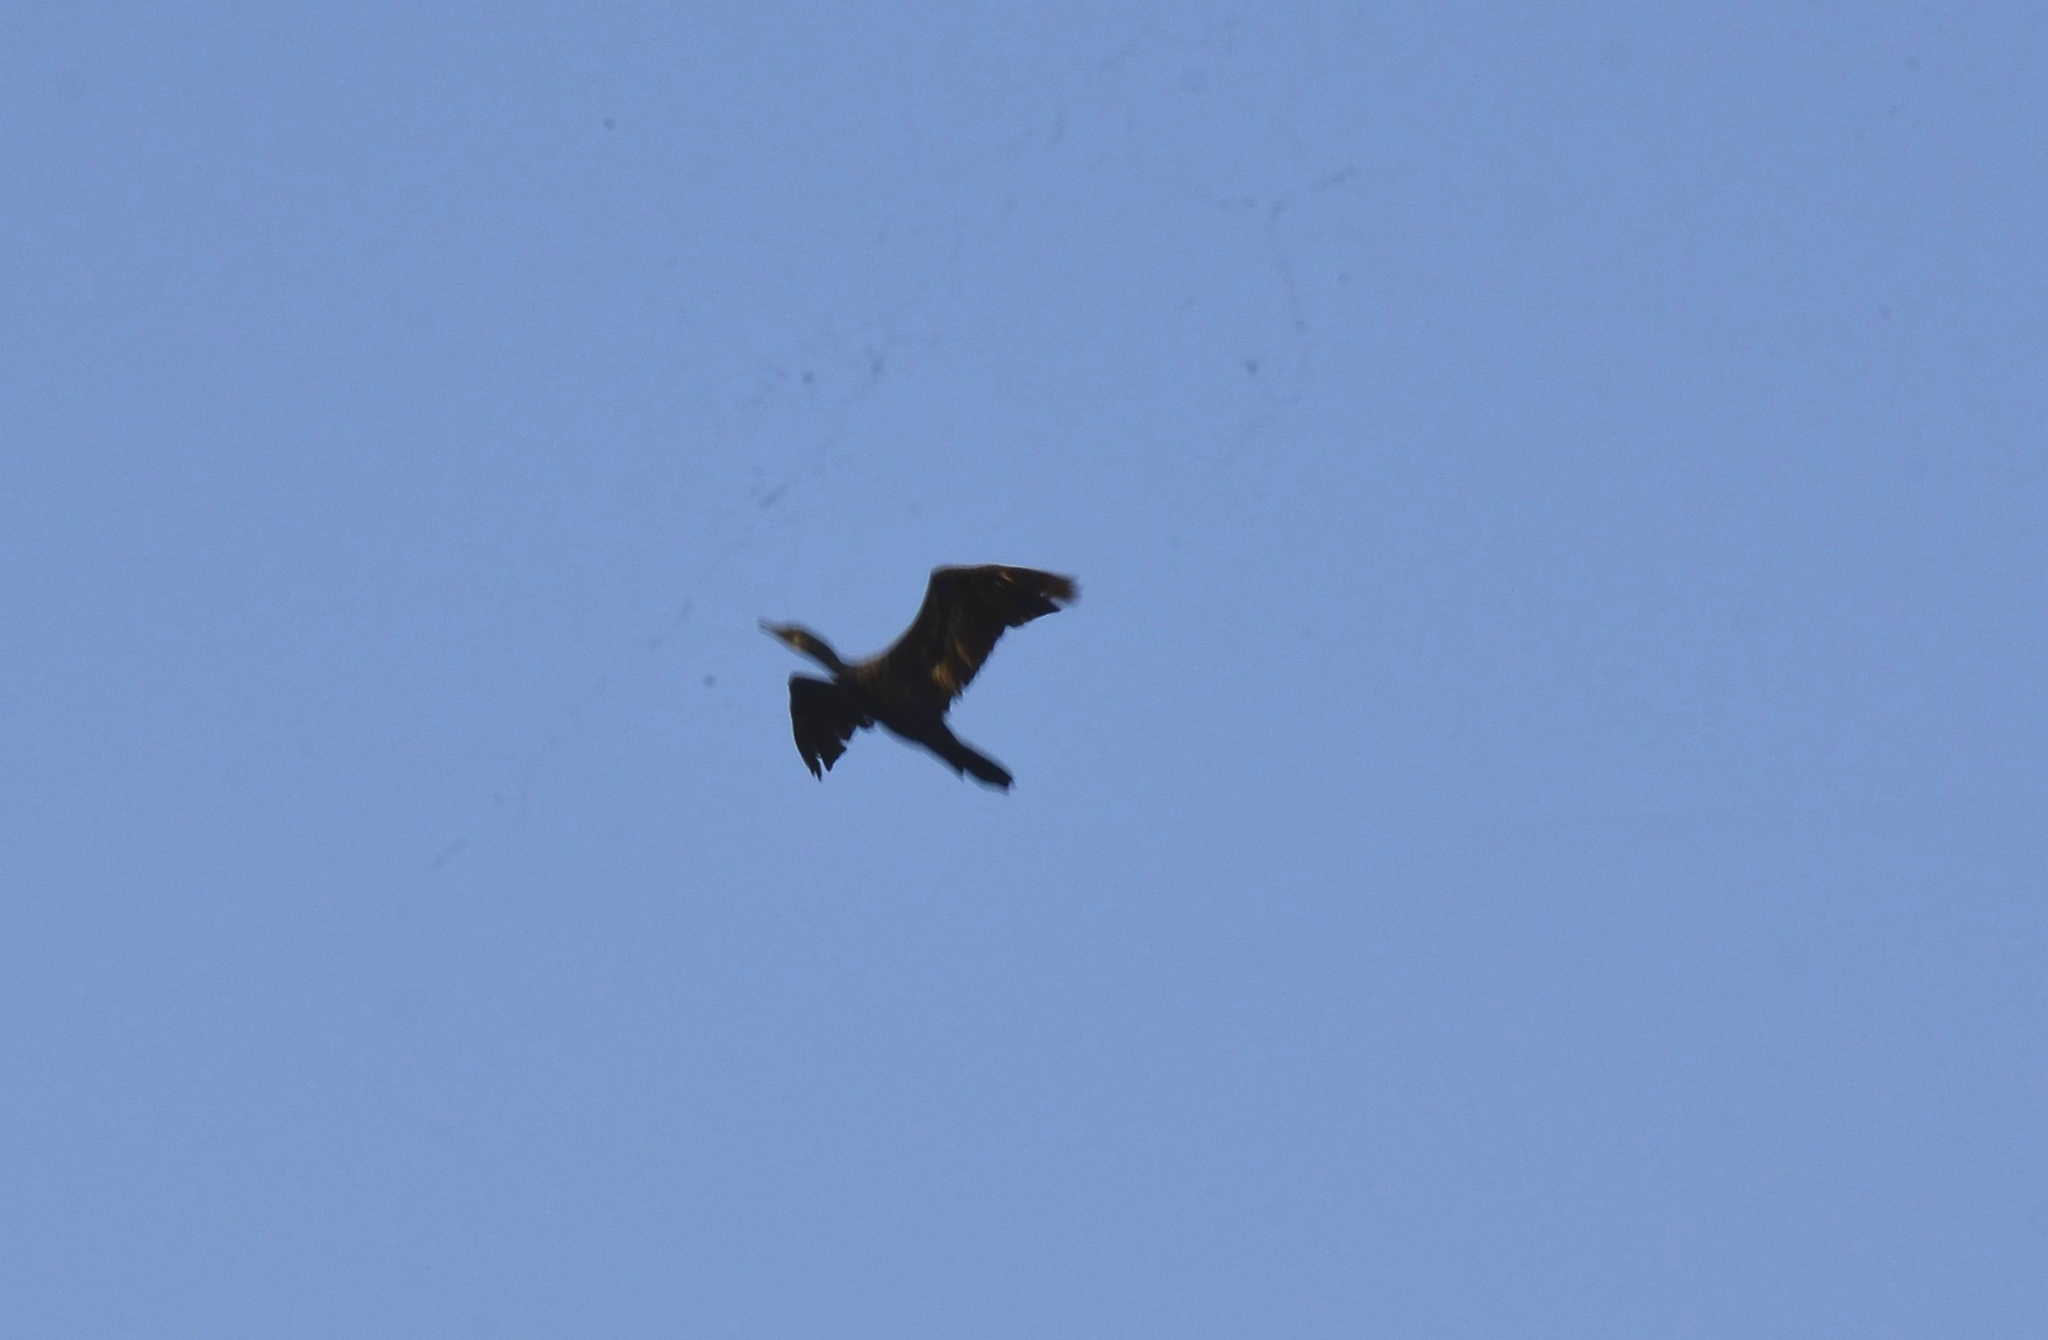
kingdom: Animalia
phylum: Chordata
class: Aves
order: Suliformes
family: Phalacrocoracidae
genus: Phalacrocorax
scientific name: Phalacrocorax fuscicollis
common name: Indian cormorant
